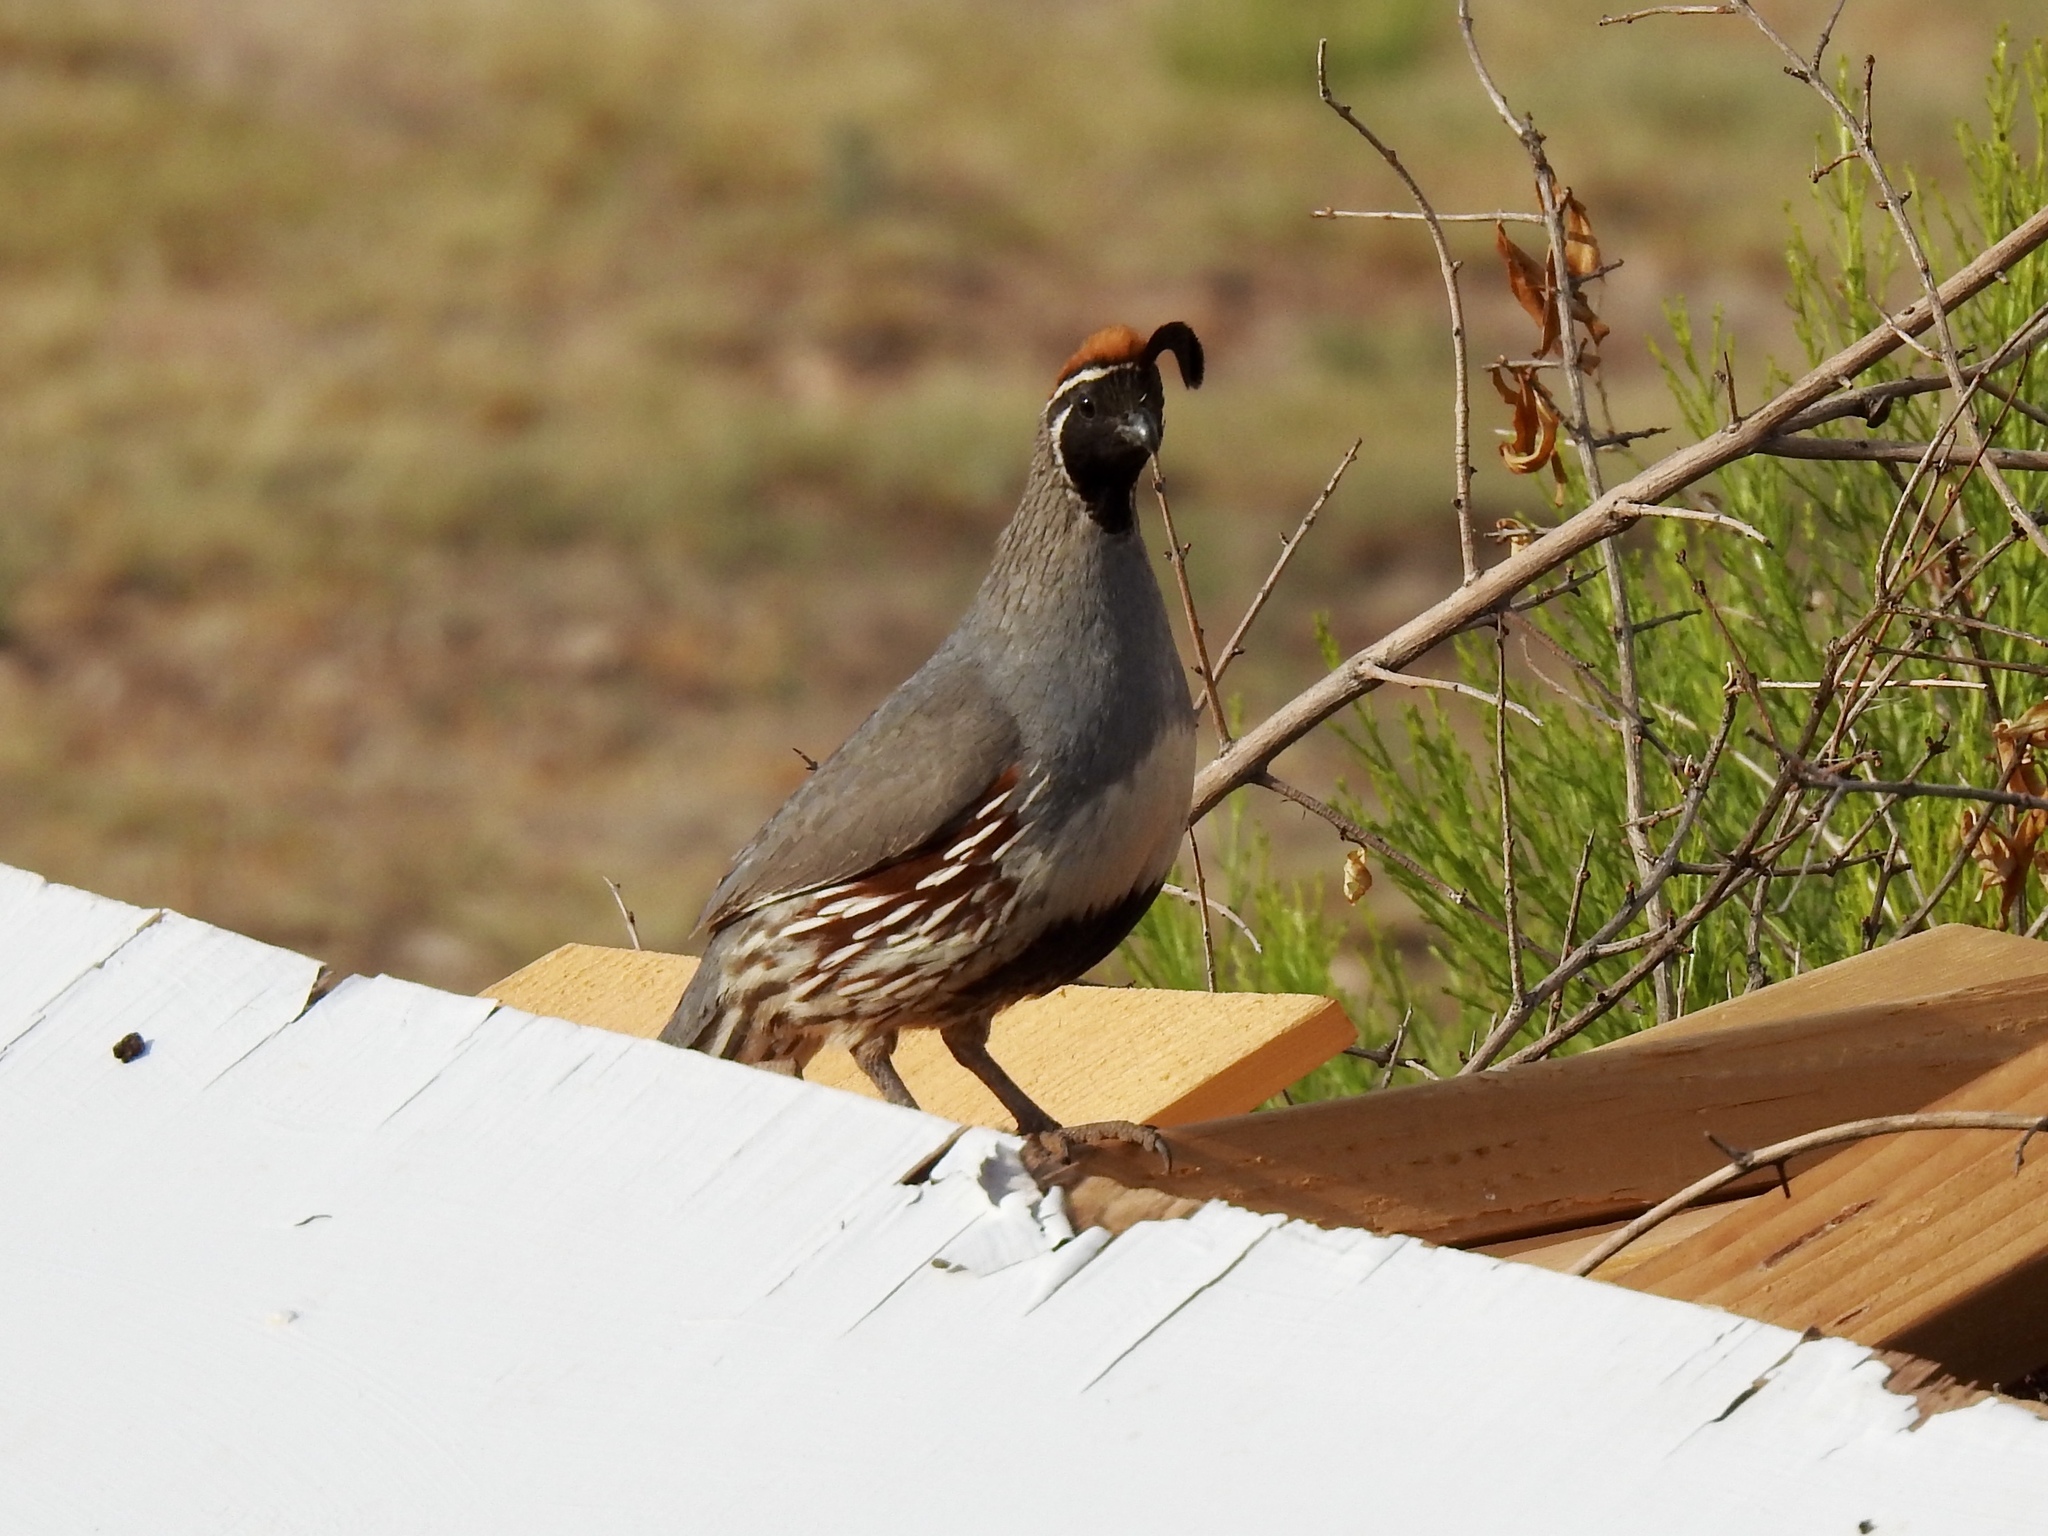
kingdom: Animalia
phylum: Chordata
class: Aves
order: Galliformes
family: Odontophoridae
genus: Callipepla
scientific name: Callipepla gambelii
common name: Gambel's quail
